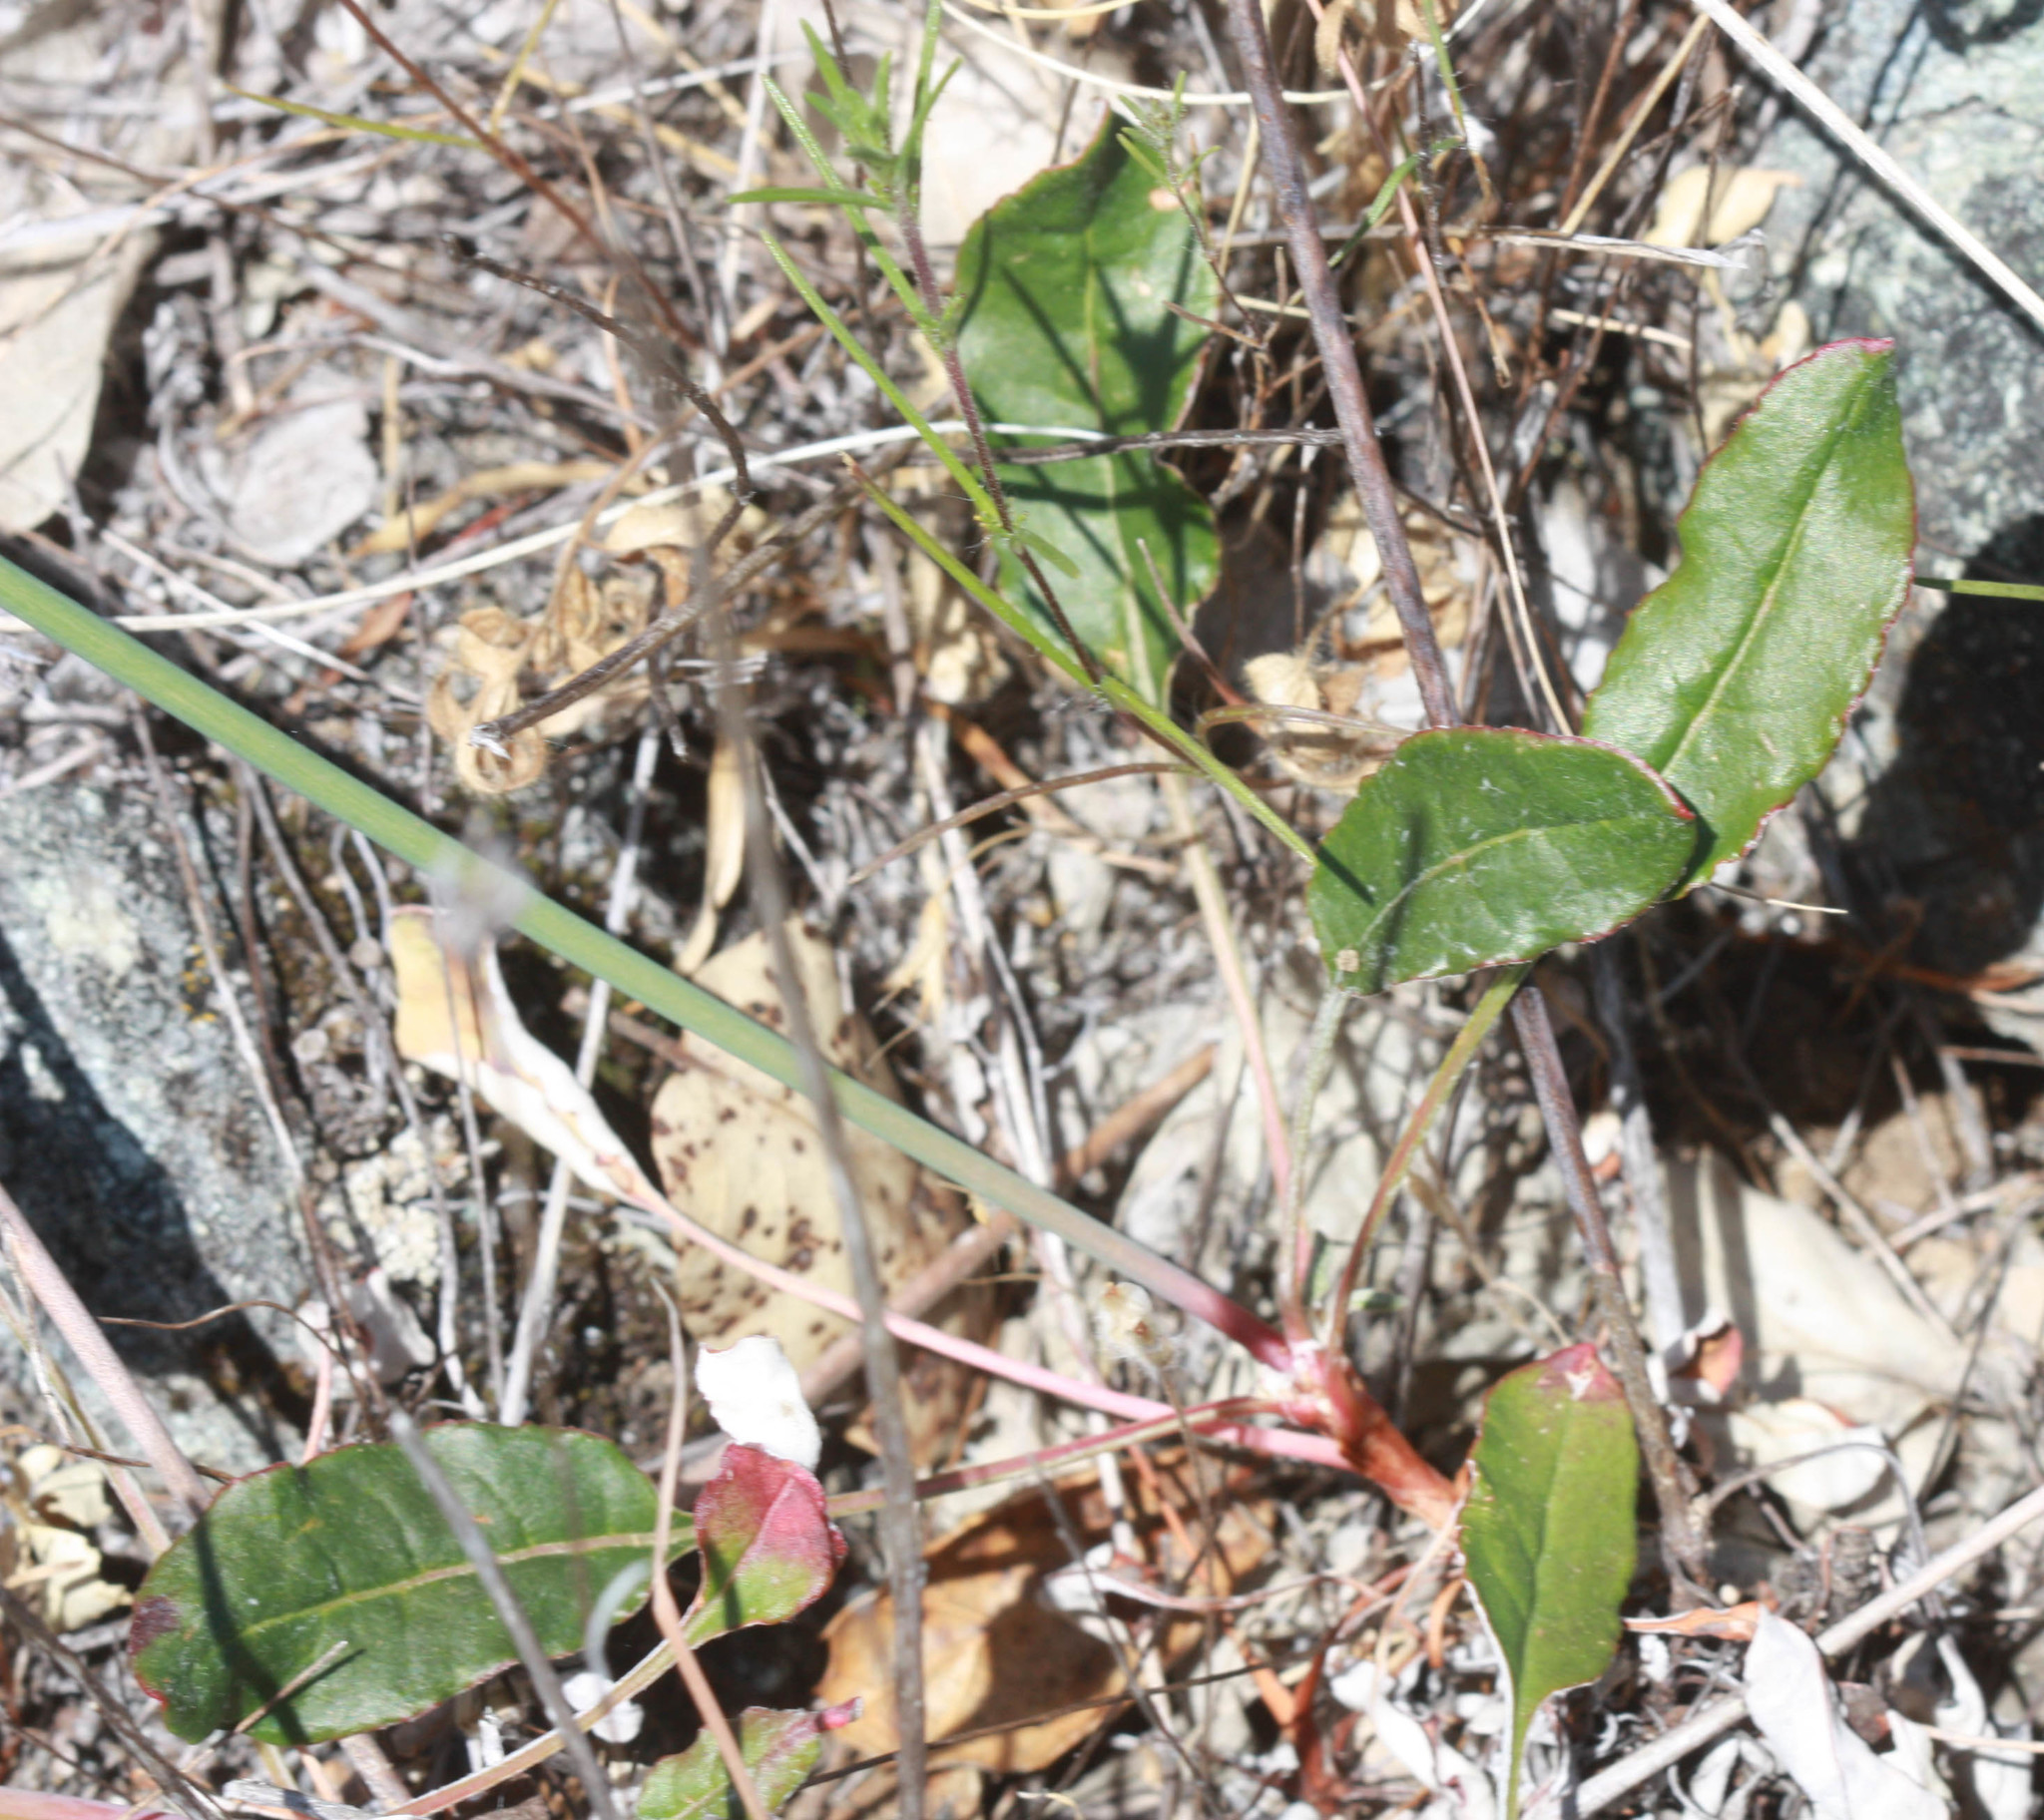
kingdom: Plantae
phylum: Tracheophyta
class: Magnoliopsida
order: Caryophyllales
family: Polygonaceae
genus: Eriogonum
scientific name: Eriogonum nudum
